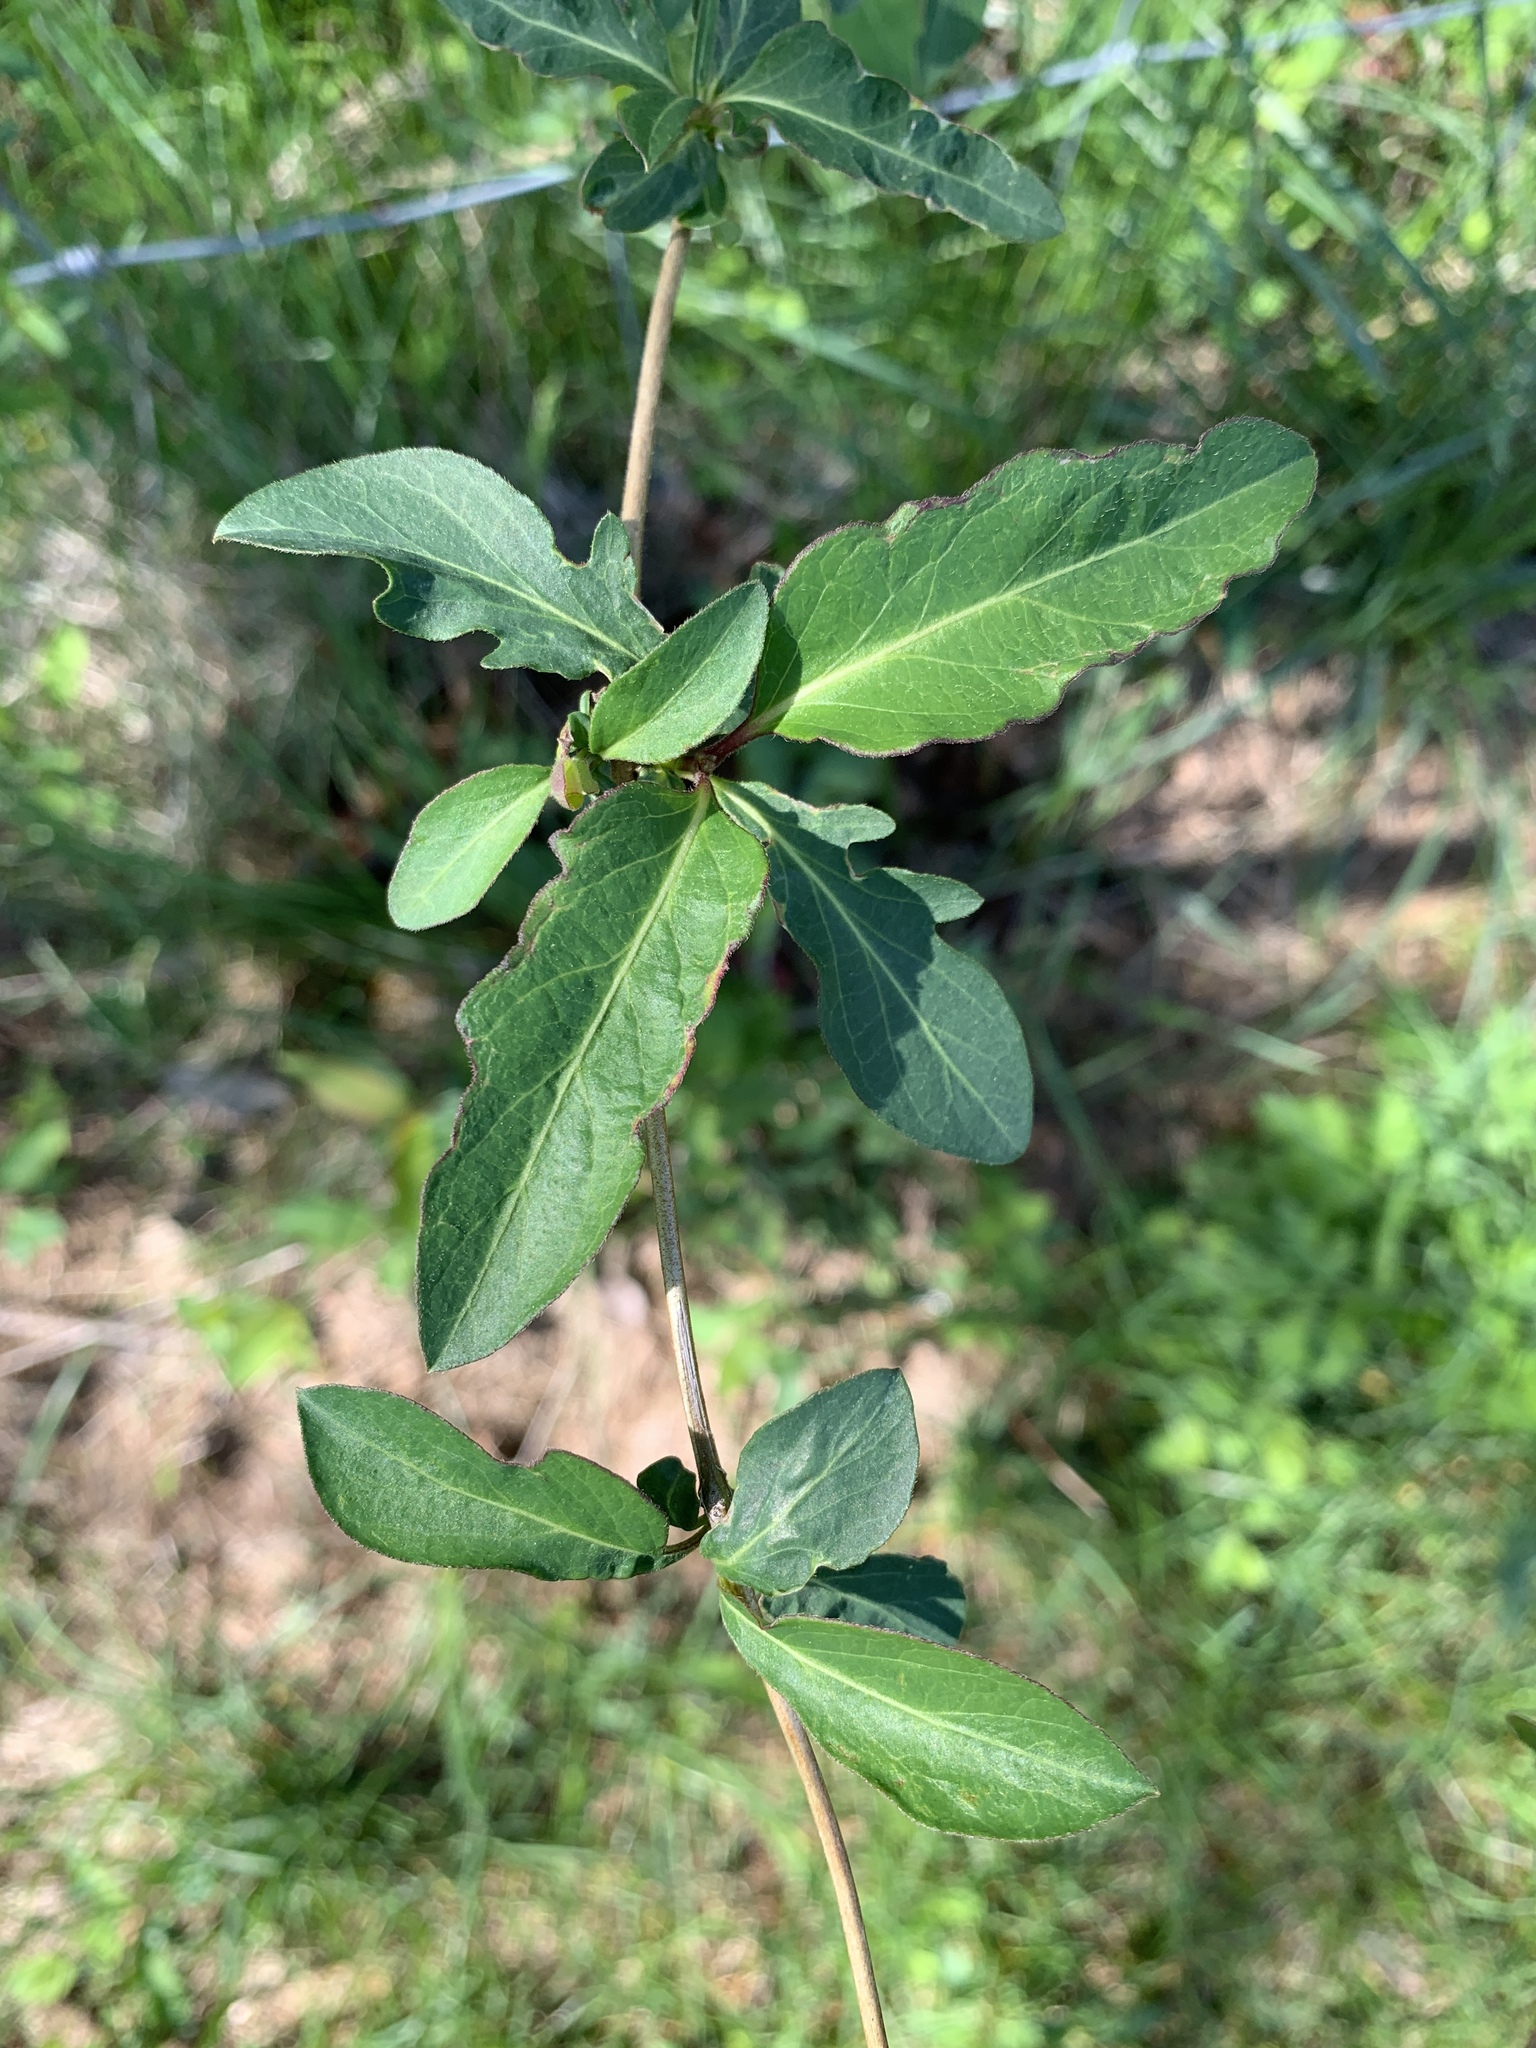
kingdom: Plantae
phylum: Tracheophyta
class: Magnoliopsida
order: Dipsacales
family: Caprifoliaceae
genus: Lonicera
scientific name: Lonicera japonica
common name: Japanese honeysuckle
